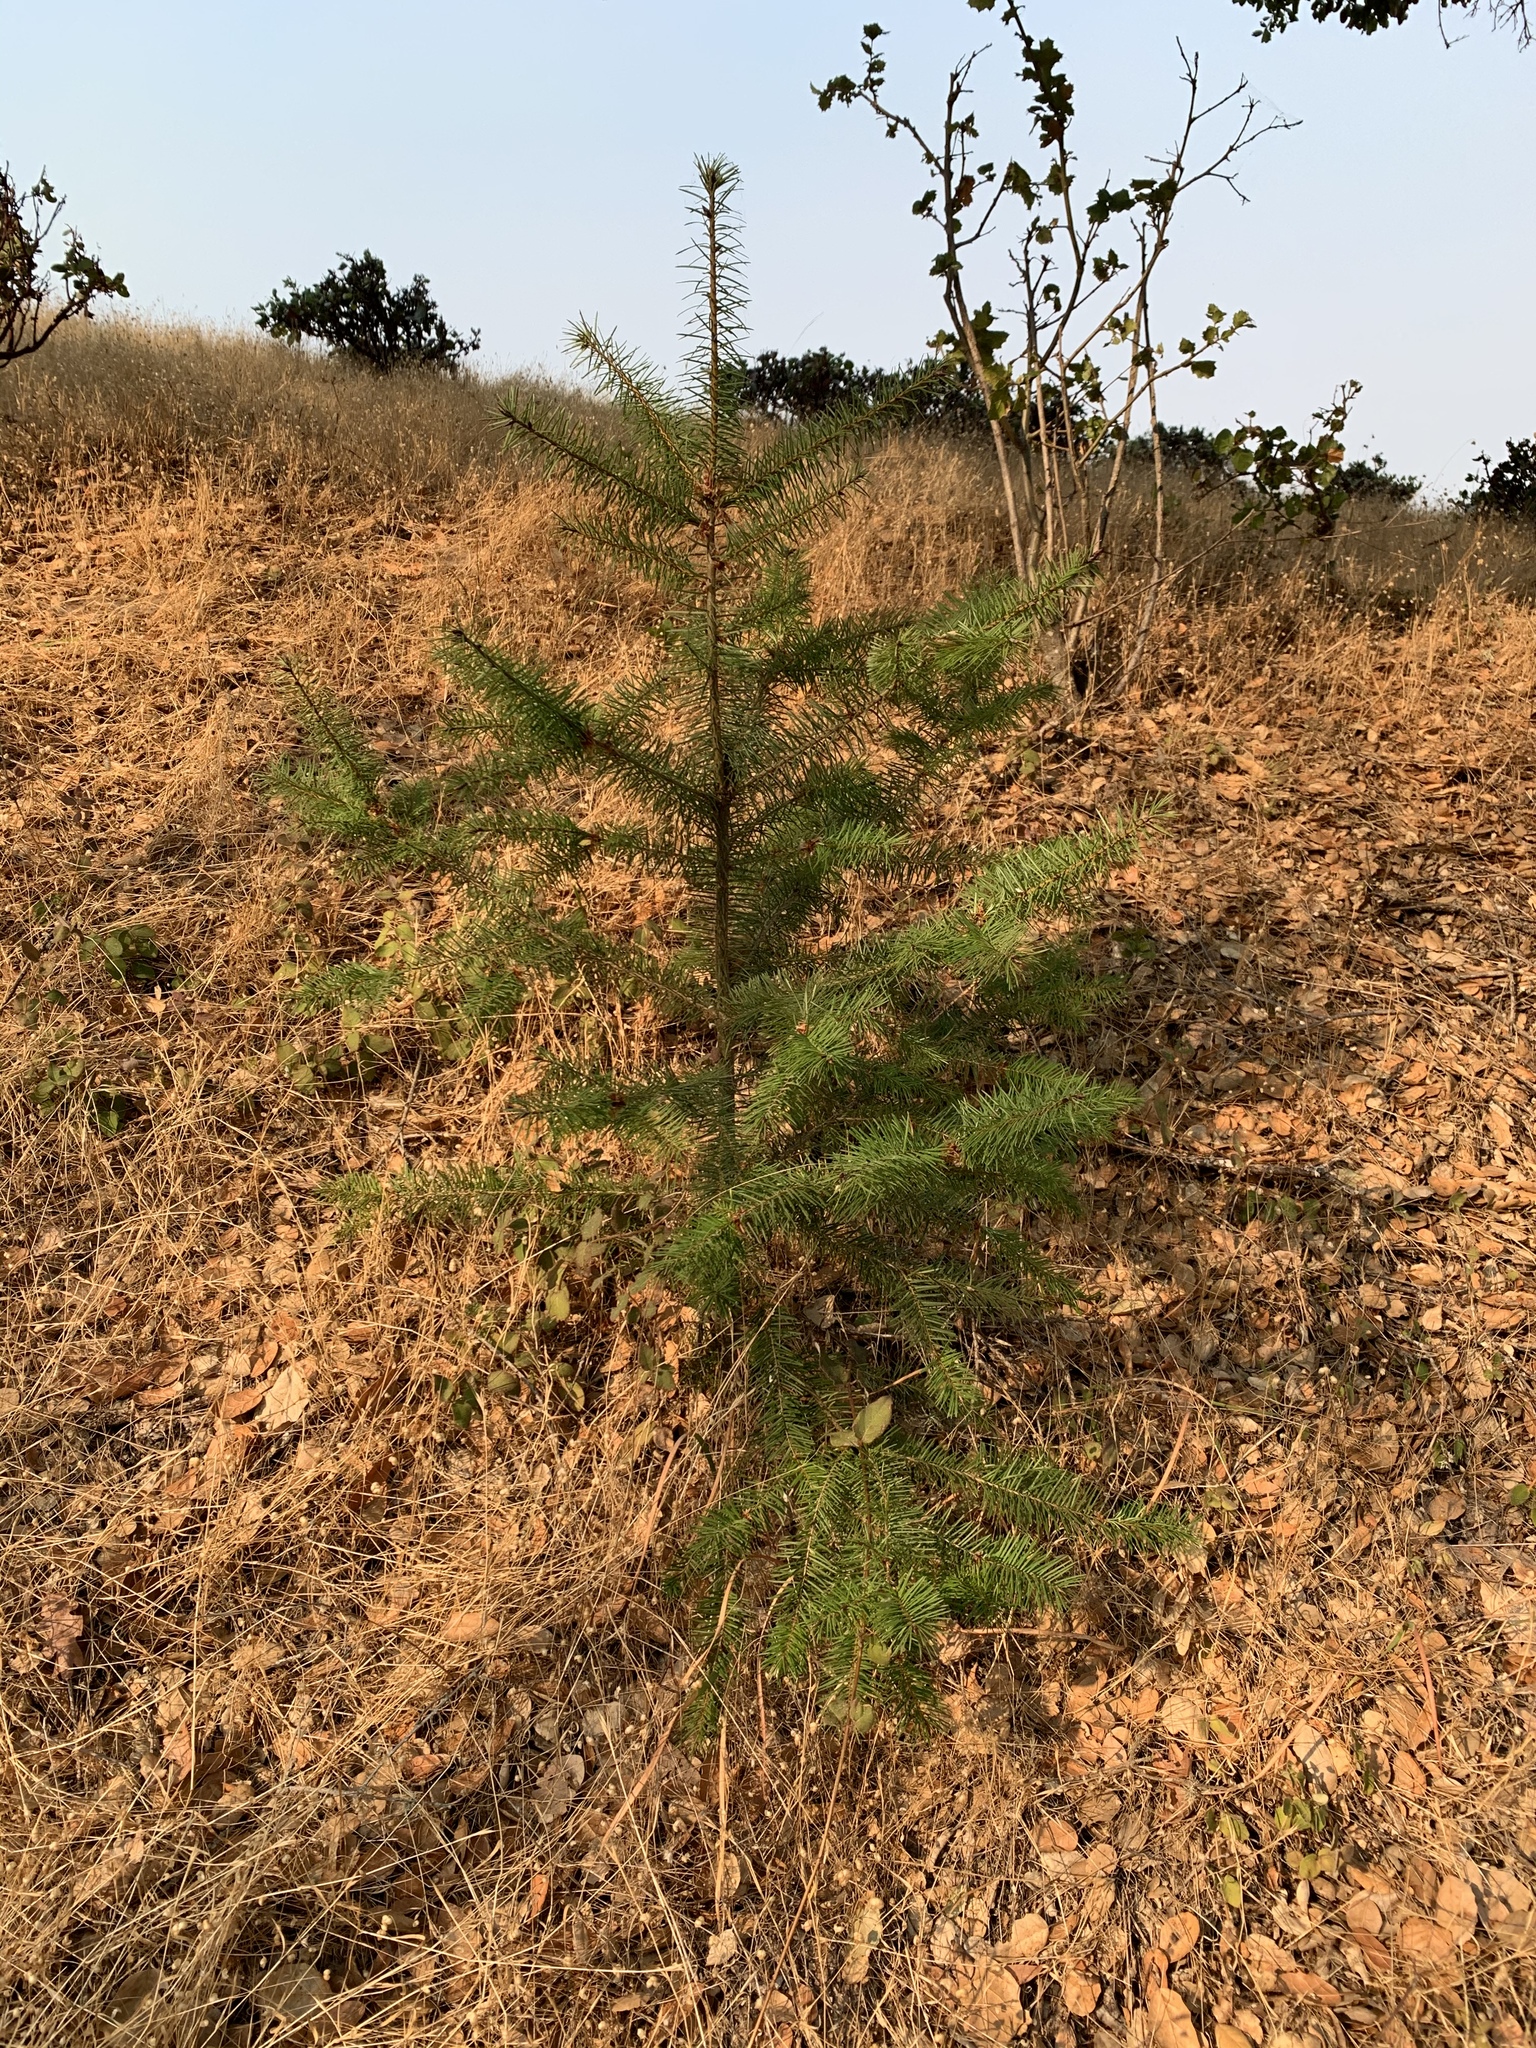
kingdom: Plantae
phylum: Tracheophyta
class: Pinopsida
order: Pinales
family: Pinaceae
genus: Pseudotsuga
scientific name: Pseudotsuga menziesii
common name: Douglas fir
